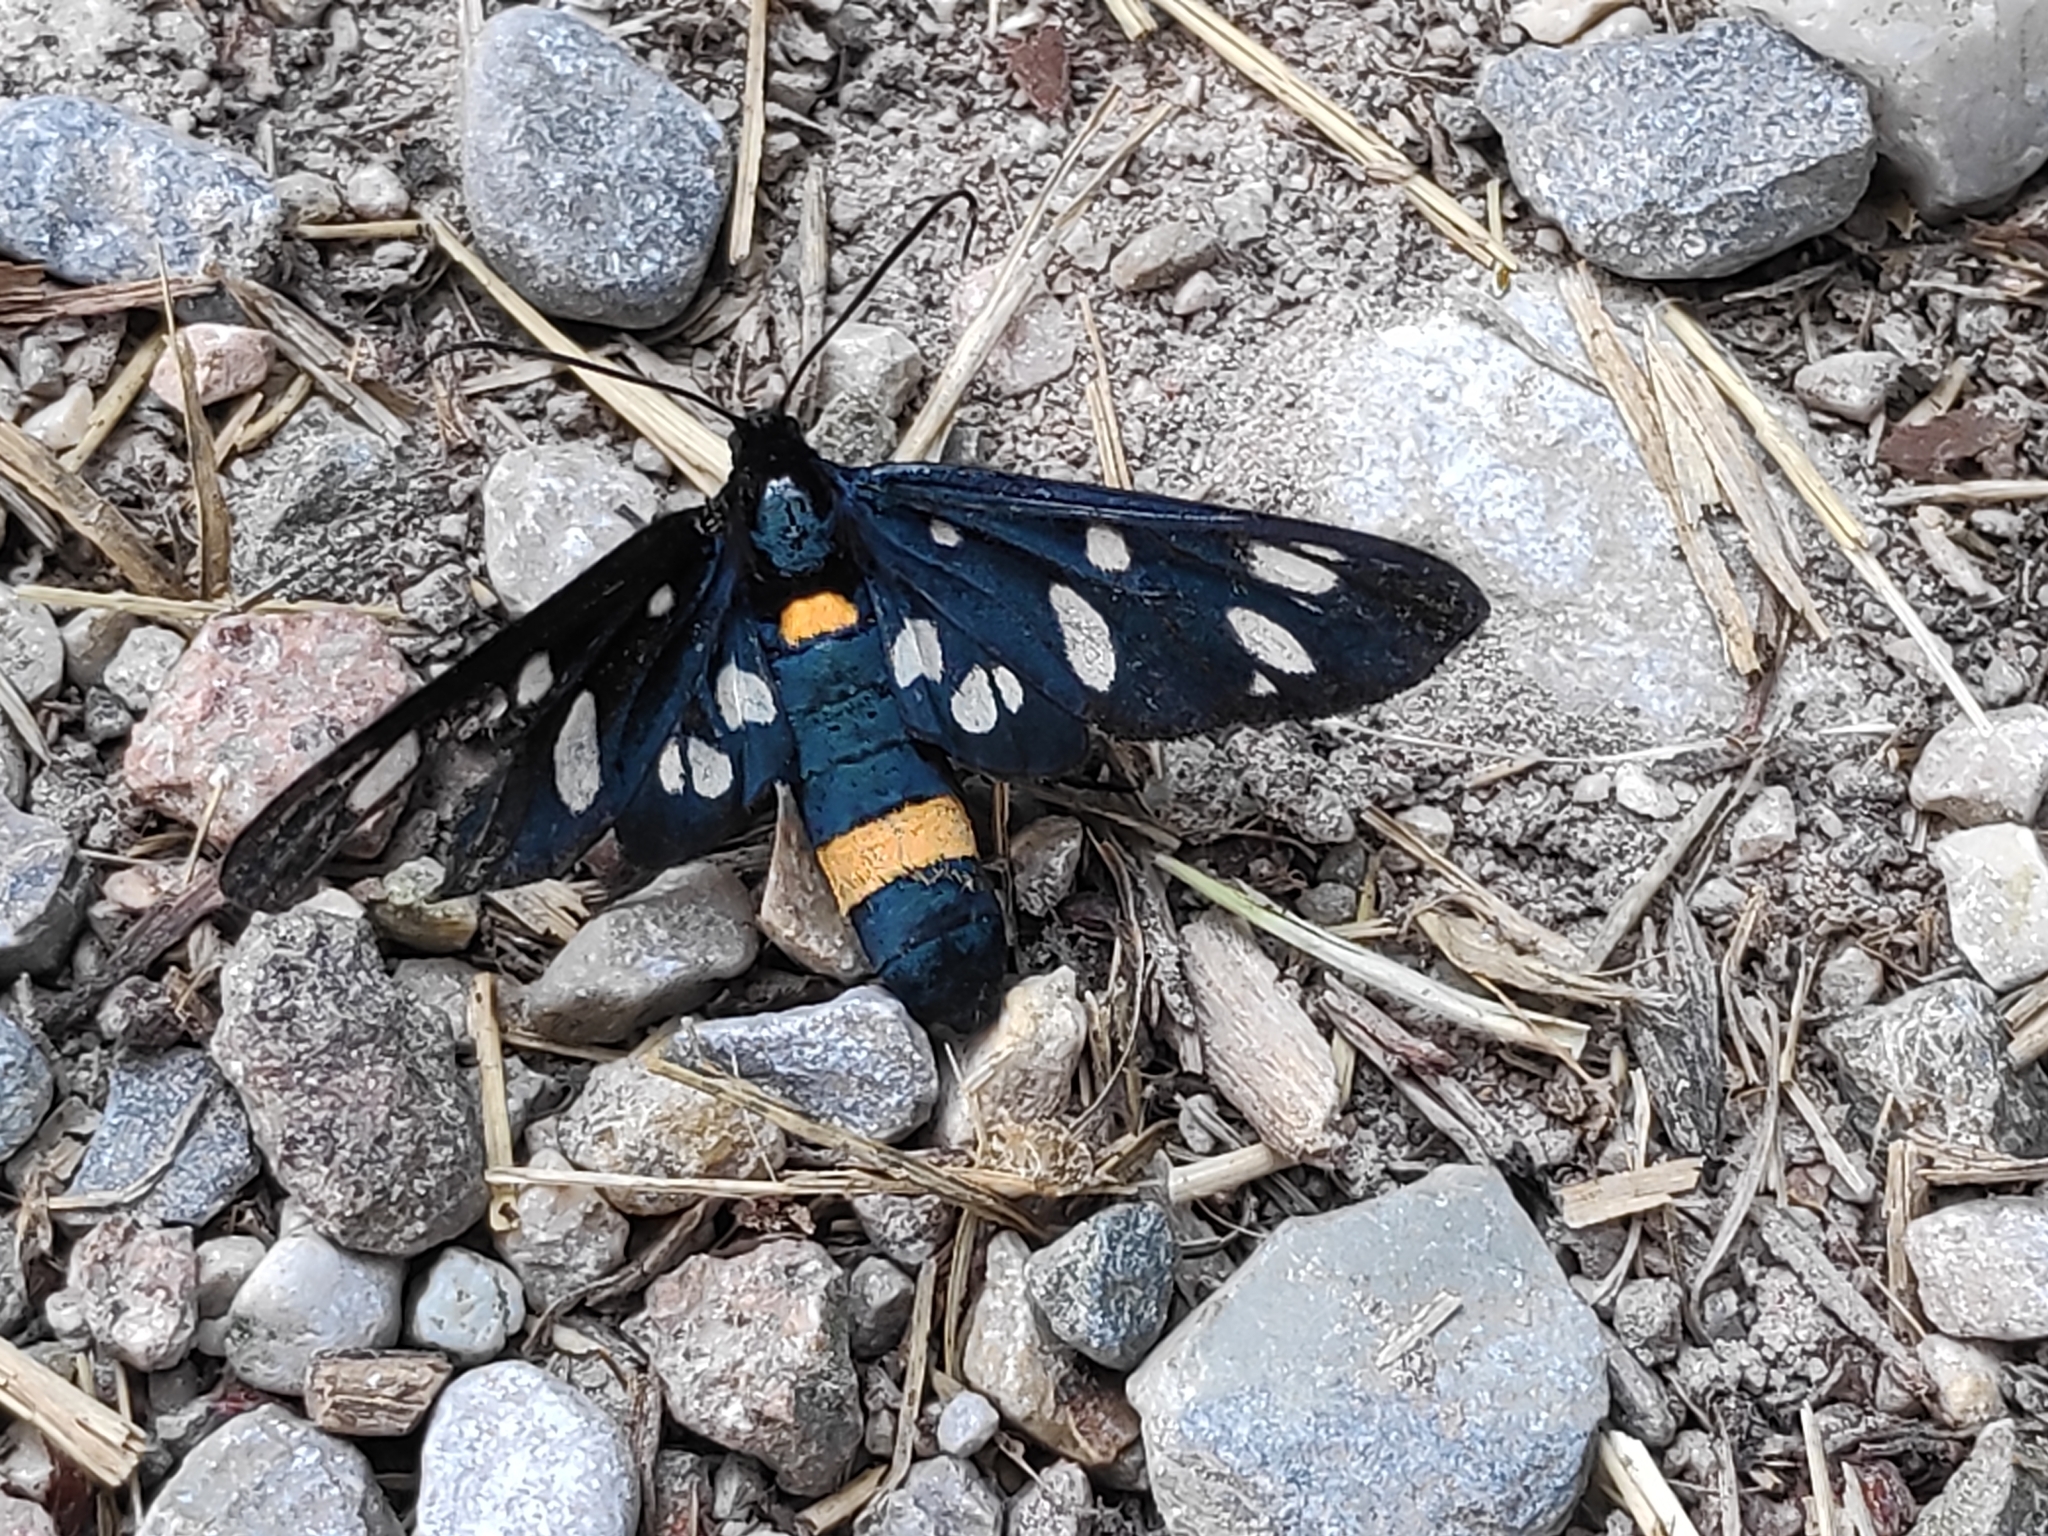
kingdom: Animalia
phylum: Arthropoda
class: Insecta
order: Lepidoptera
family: Erebidae
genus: Amata
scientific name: Amata phegea
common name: Nine-spotted
